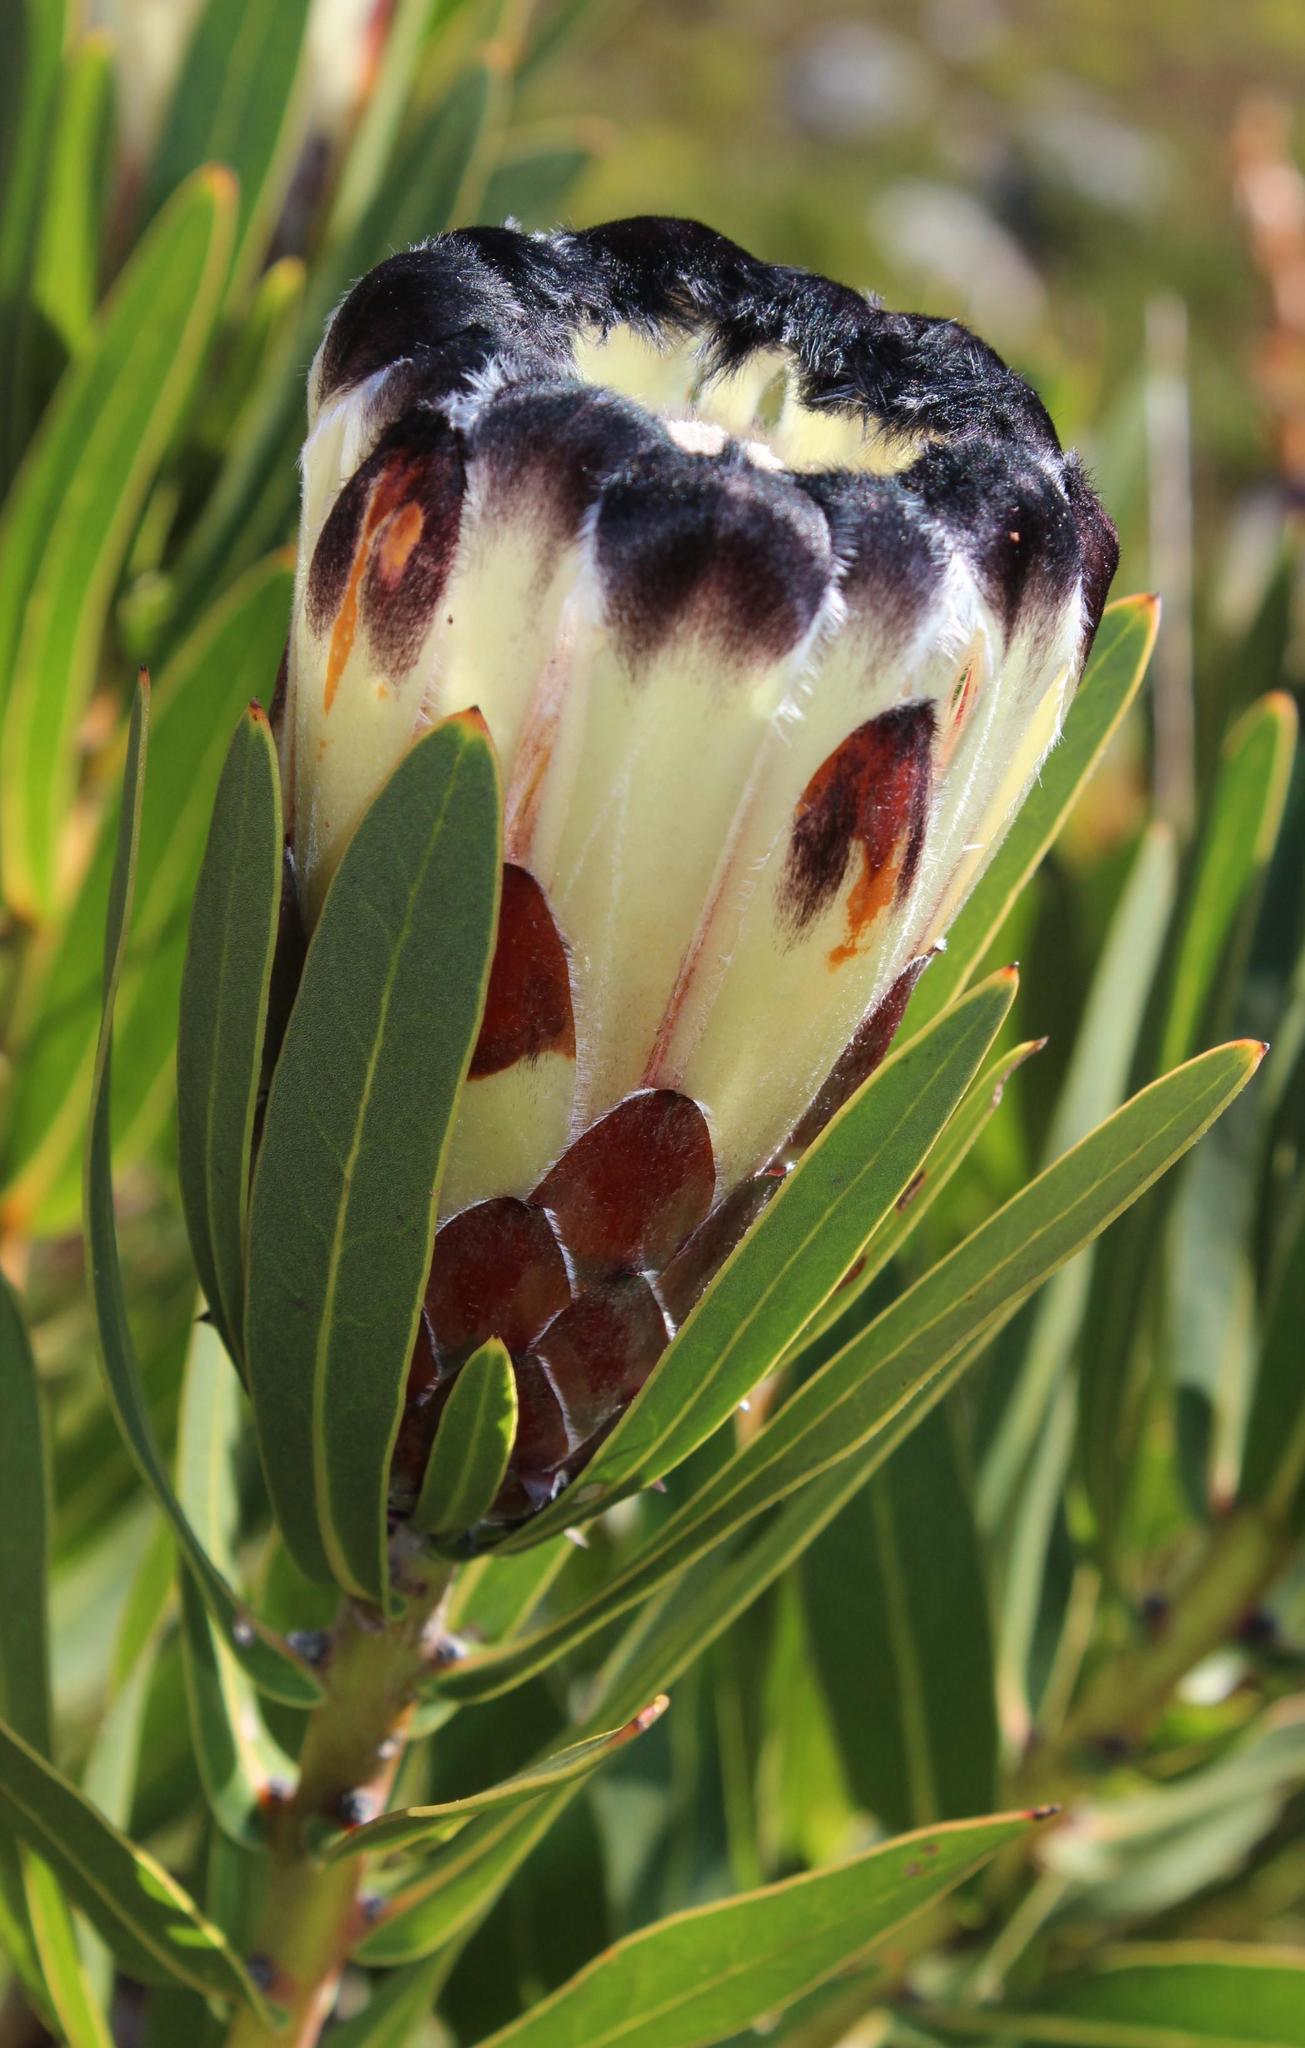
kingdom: Plantae
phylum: Tracheophyta
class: Magnoliopsida
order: Proteales
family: Proteaceae
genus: Protea
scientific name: Protea lepidocarpodendron
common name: Black-bearded protea
